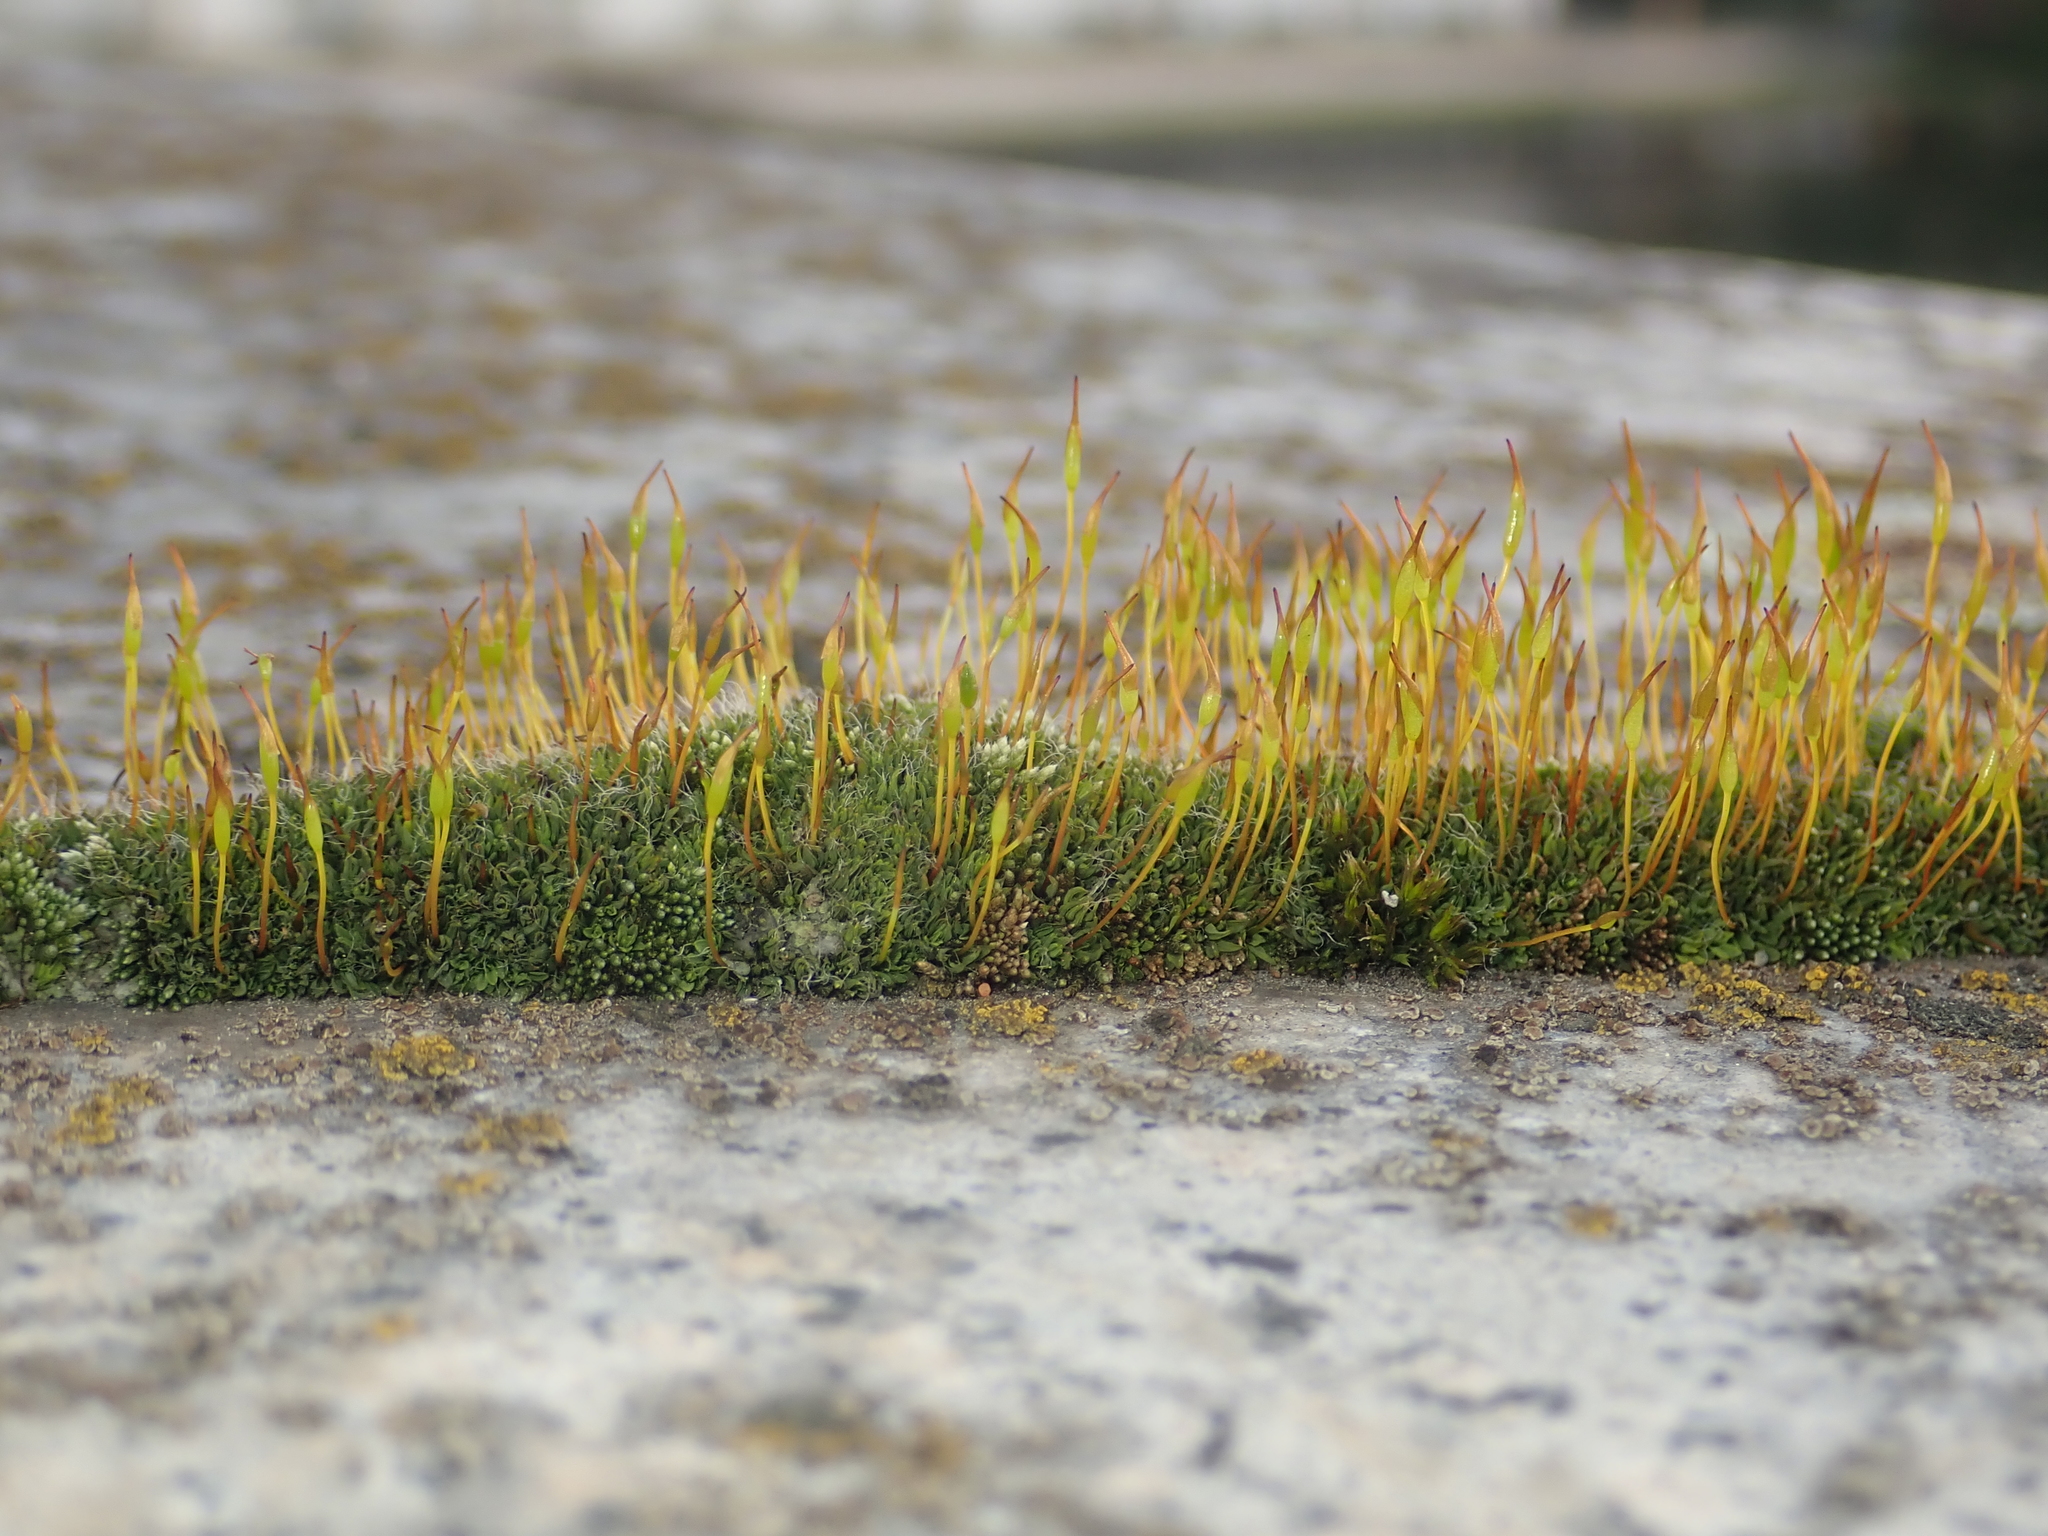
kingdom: Plantae
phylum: Bryophyta
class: Bryopsida
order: Pottiales
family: Pottiaceae
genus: Tortula
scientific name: Tortula muralis
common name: Wall screw-moss
